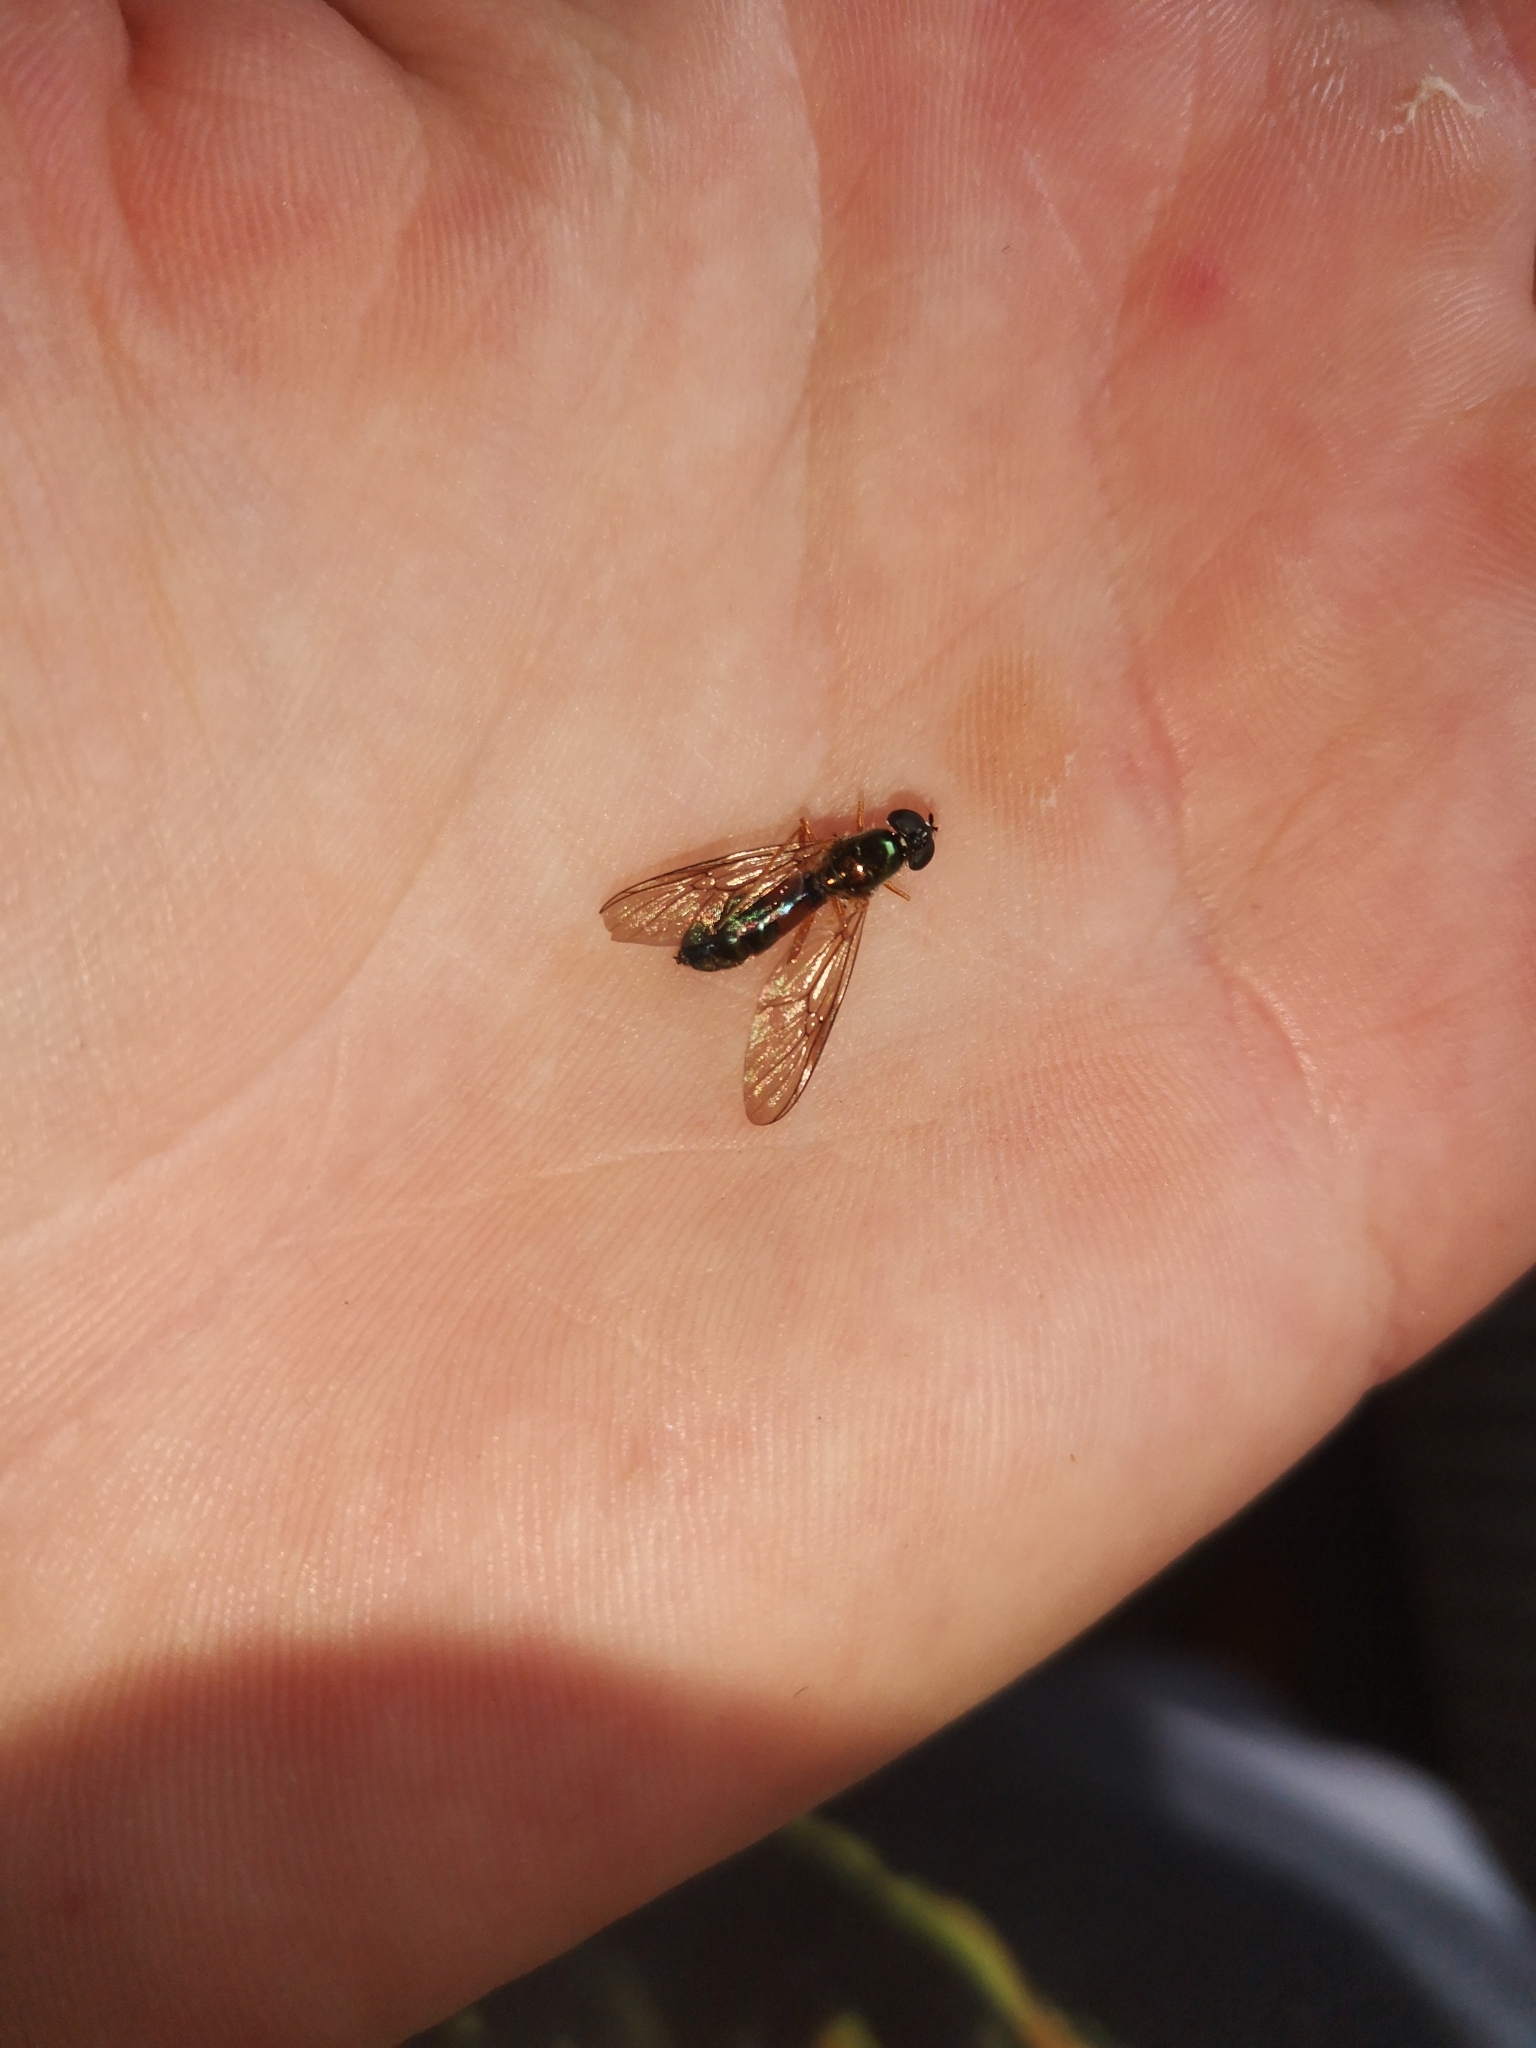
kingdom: Animalia
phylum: Arthropoda
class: Insecta
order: Diptera
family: Stratiomyidae
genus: Sargus
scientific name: Sargus bipunctatus
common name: Twin-spot centurion
